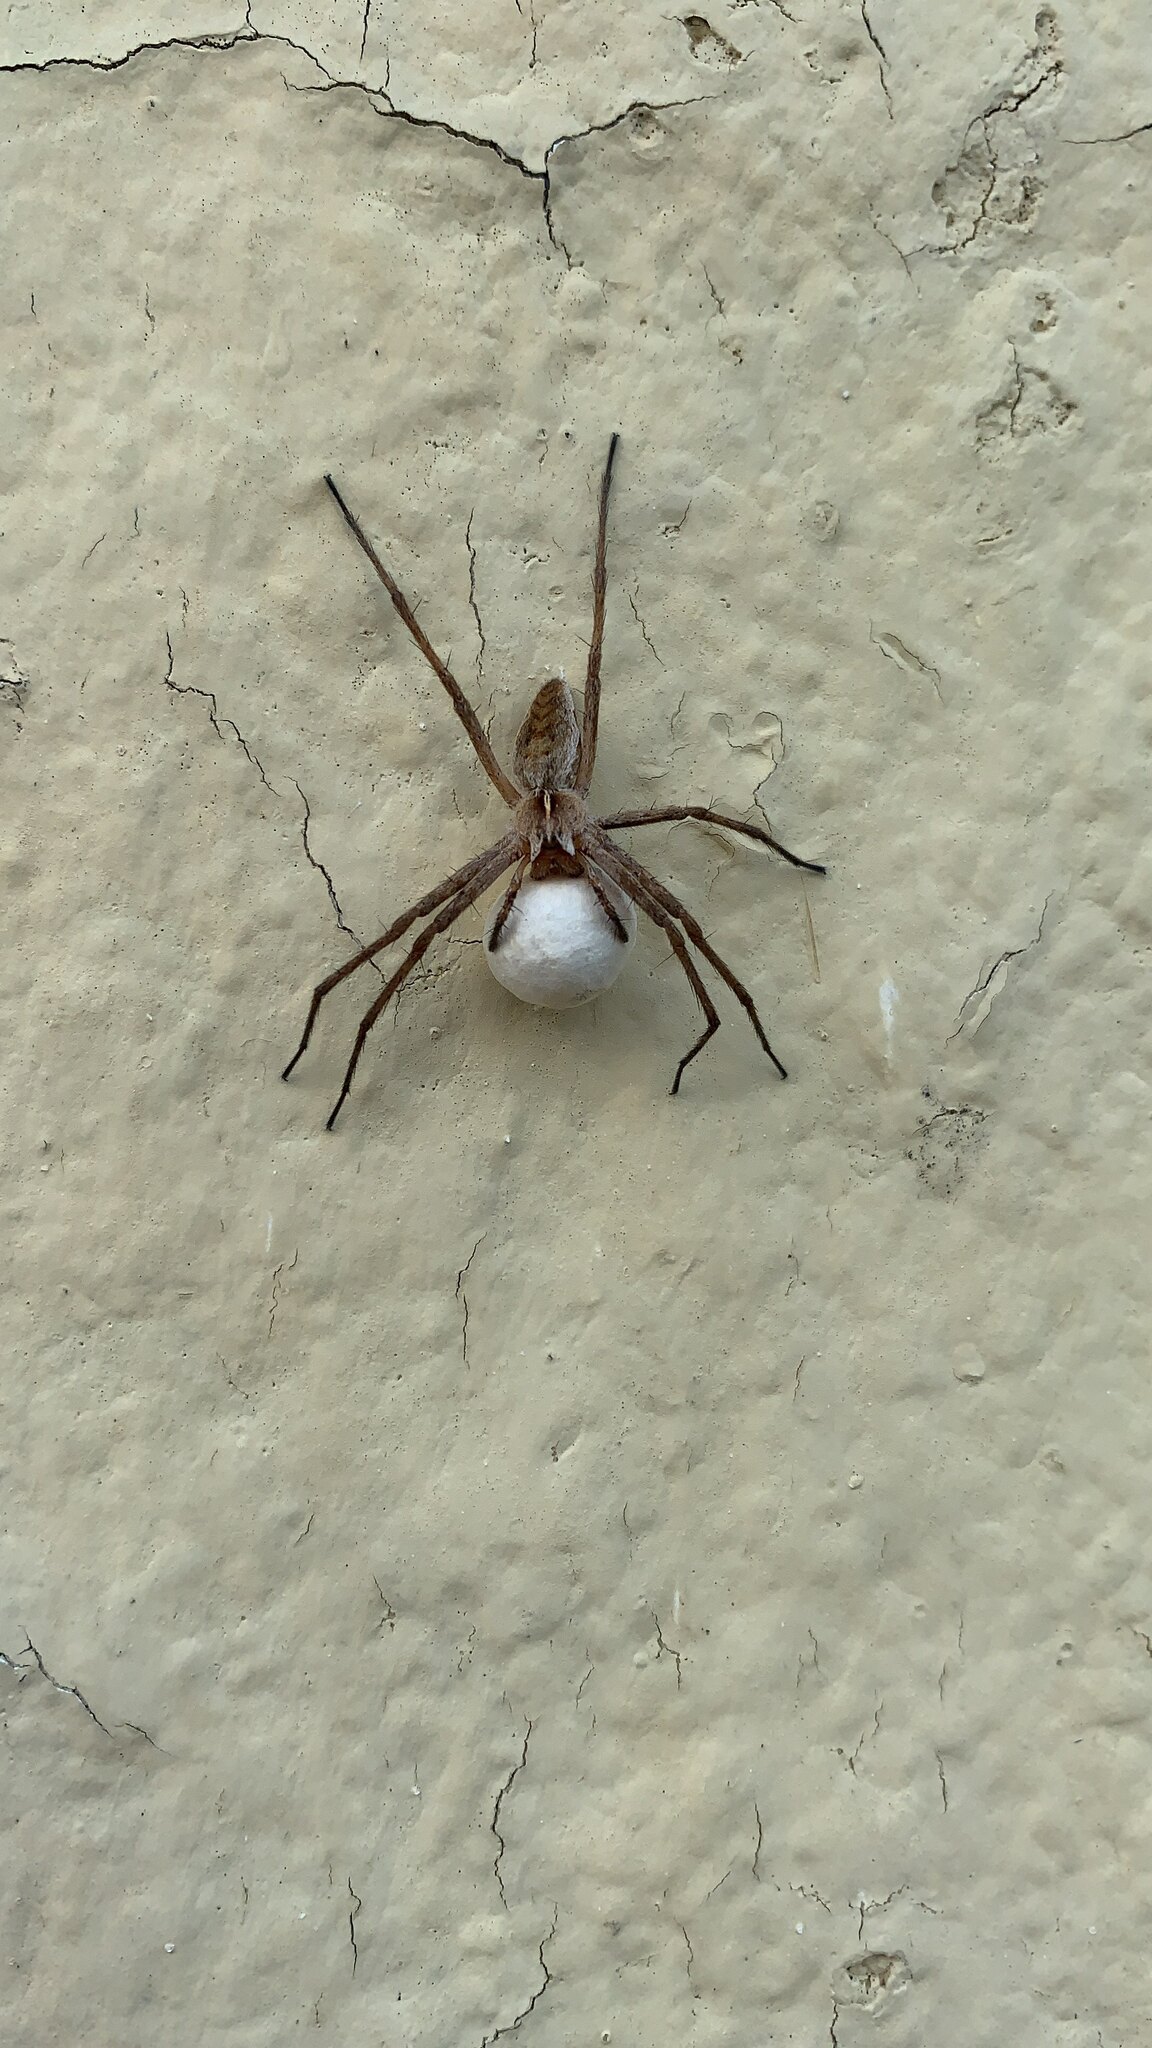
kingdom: Animalia
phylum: Arthropoda
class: Arachnida
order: Araneae
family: Pisauridae
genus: Pisaura
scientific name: Pisaura mirabilis
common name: Tent spider
